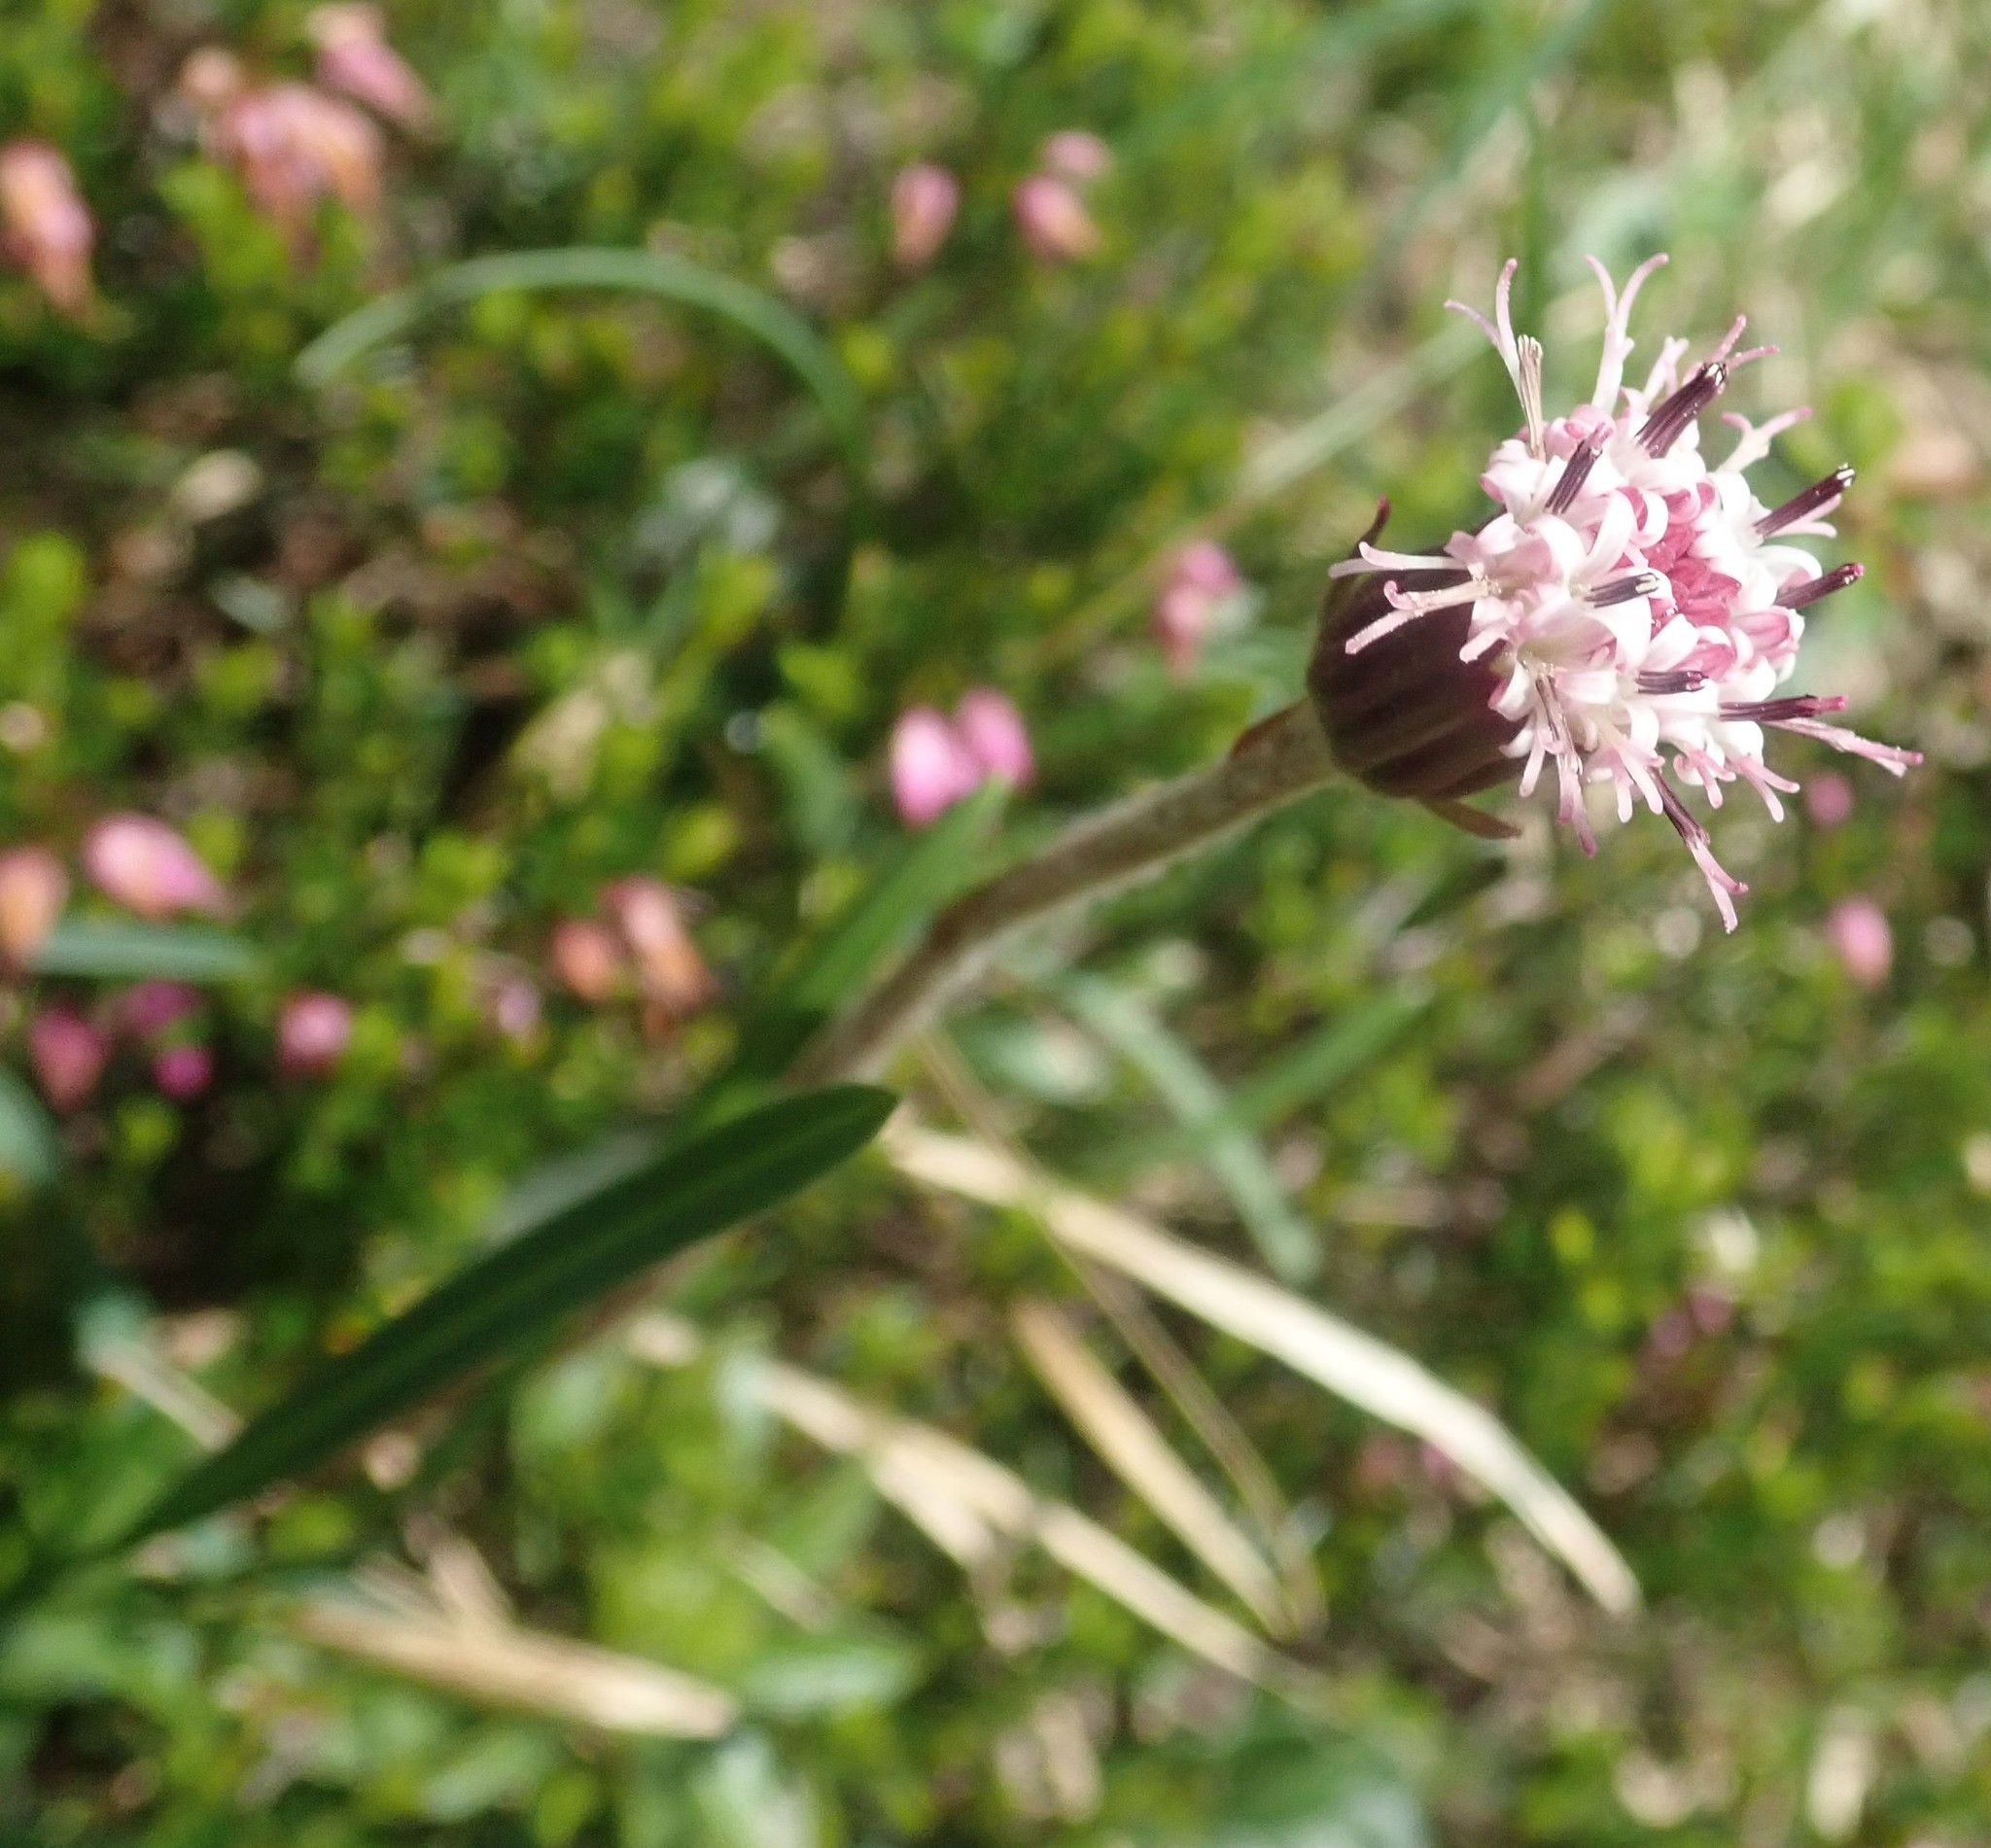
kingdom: Plantae
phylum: Tracheophyta
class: Magnoliopsida
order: Asterales
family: Asteraceae
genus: Homogyne
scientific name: Homogyne alpina
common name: Purple colt's-foot
